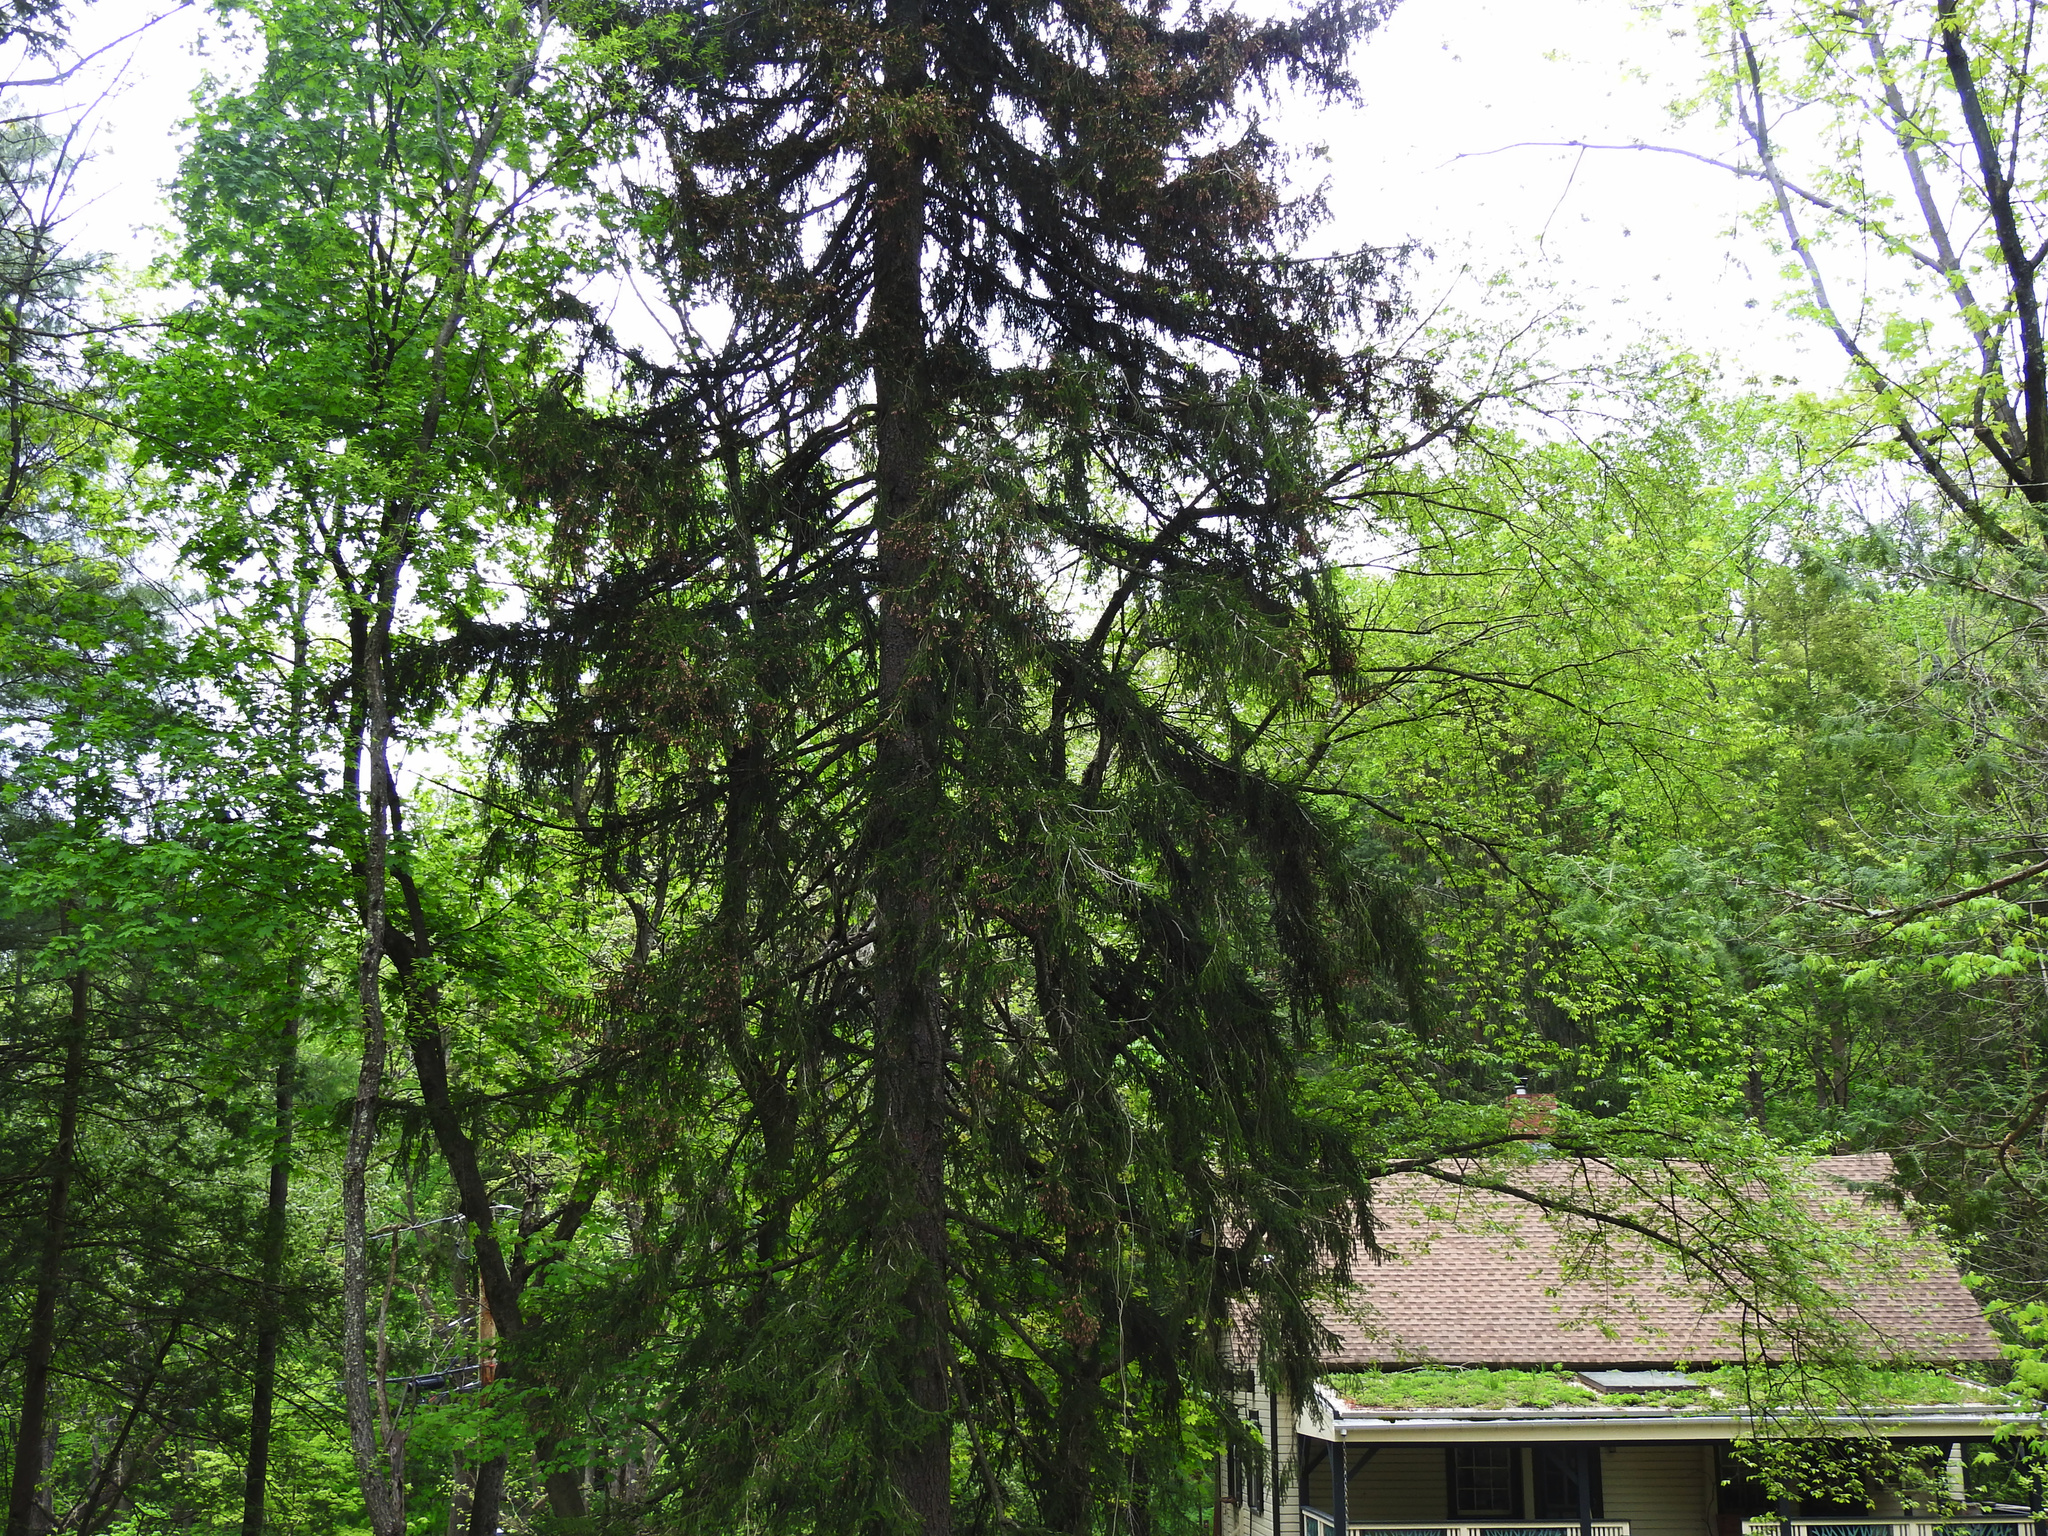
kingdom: Plantae
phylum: Tracheophyta
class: Pinopsida
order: Pinales
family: Pinaceae
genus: Picea
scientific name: Picea abies
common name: Norway spruce
